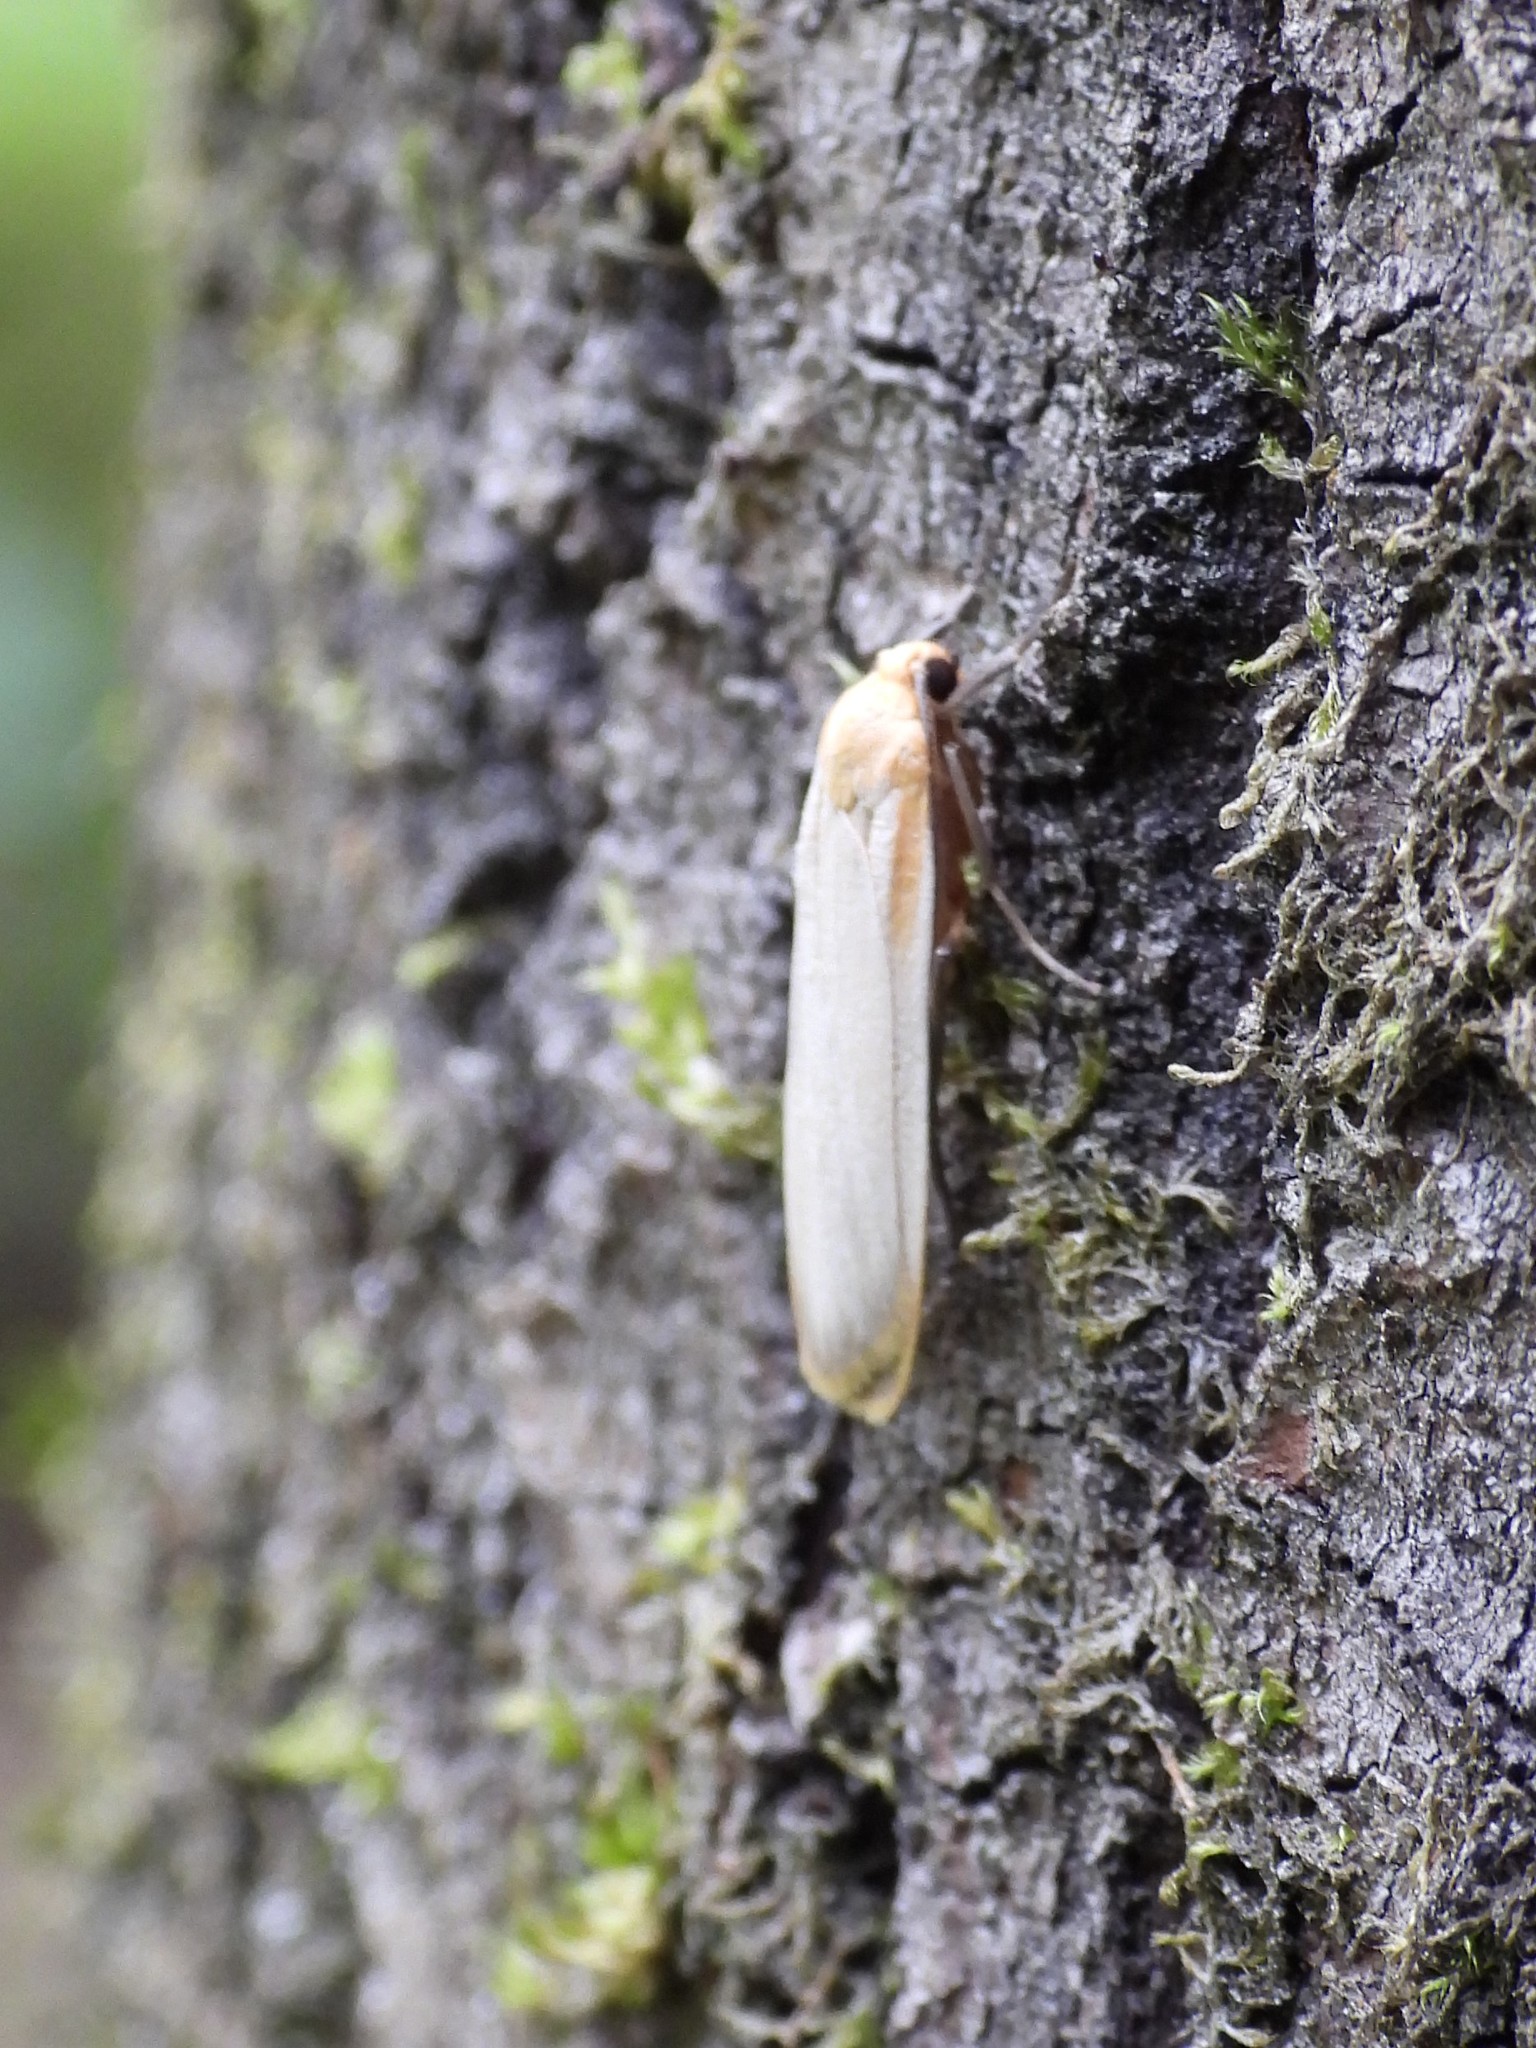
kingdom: Animalia
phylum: Arthropoda
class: Insecta
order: Lepidoptera
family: Erebidae
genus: Katha
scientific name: Katha depressa
